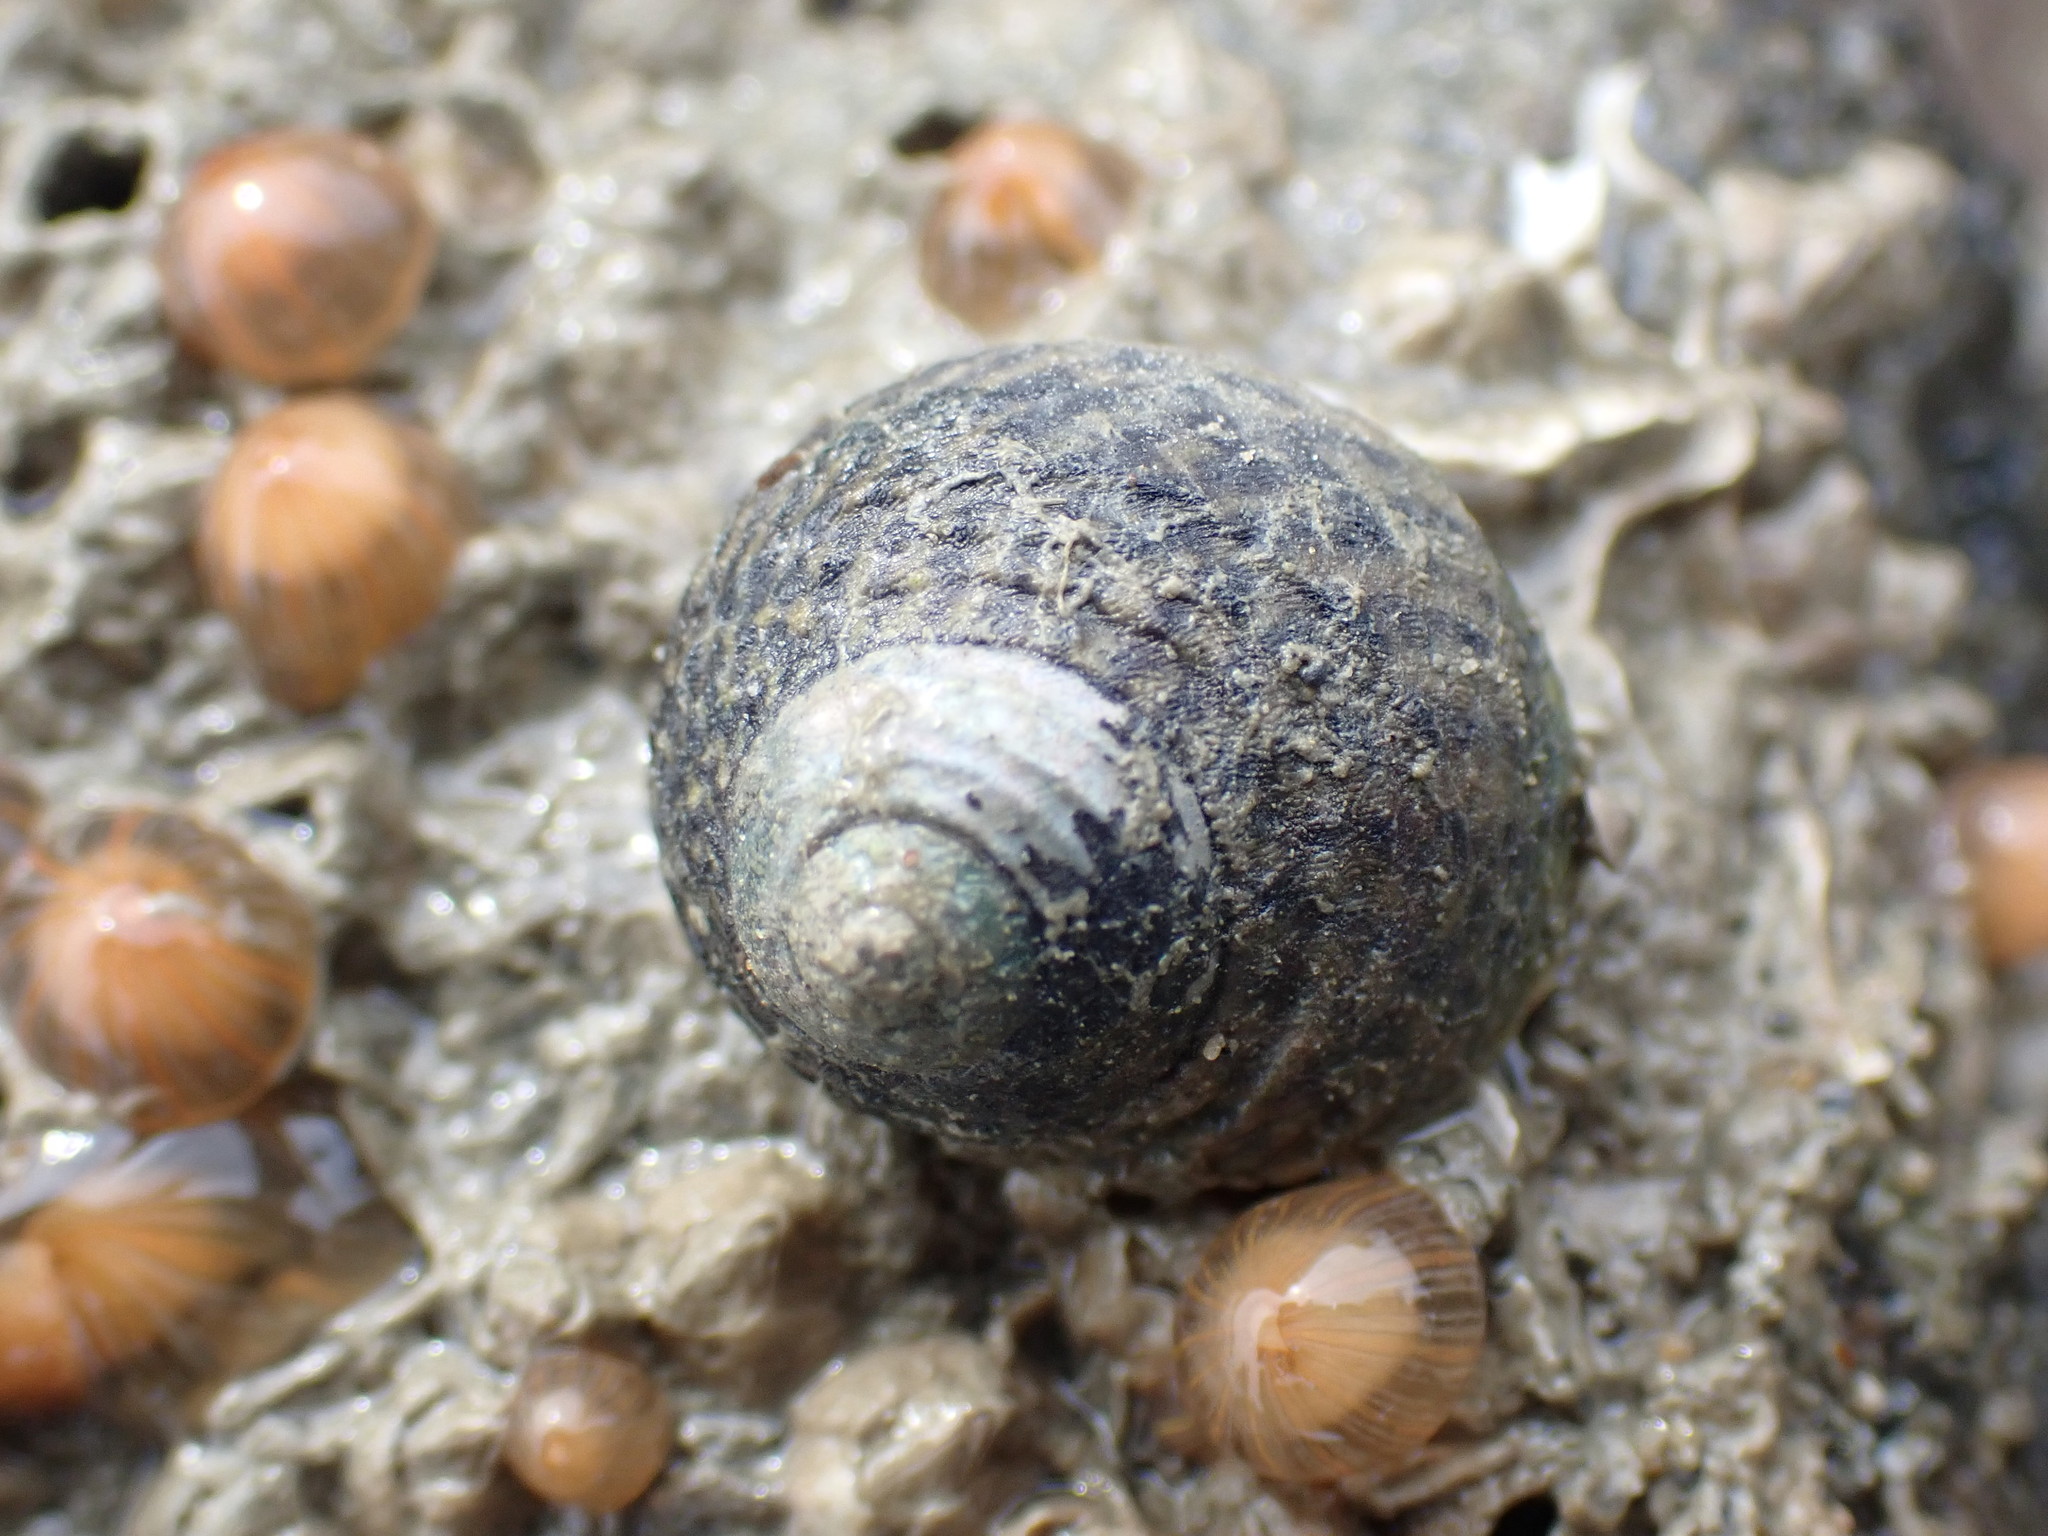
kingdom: Animalia
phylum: Mollusca
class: Gastropoda
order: Trochida
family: Trochidae
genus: Diloma
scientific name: Diloma subrostratum
